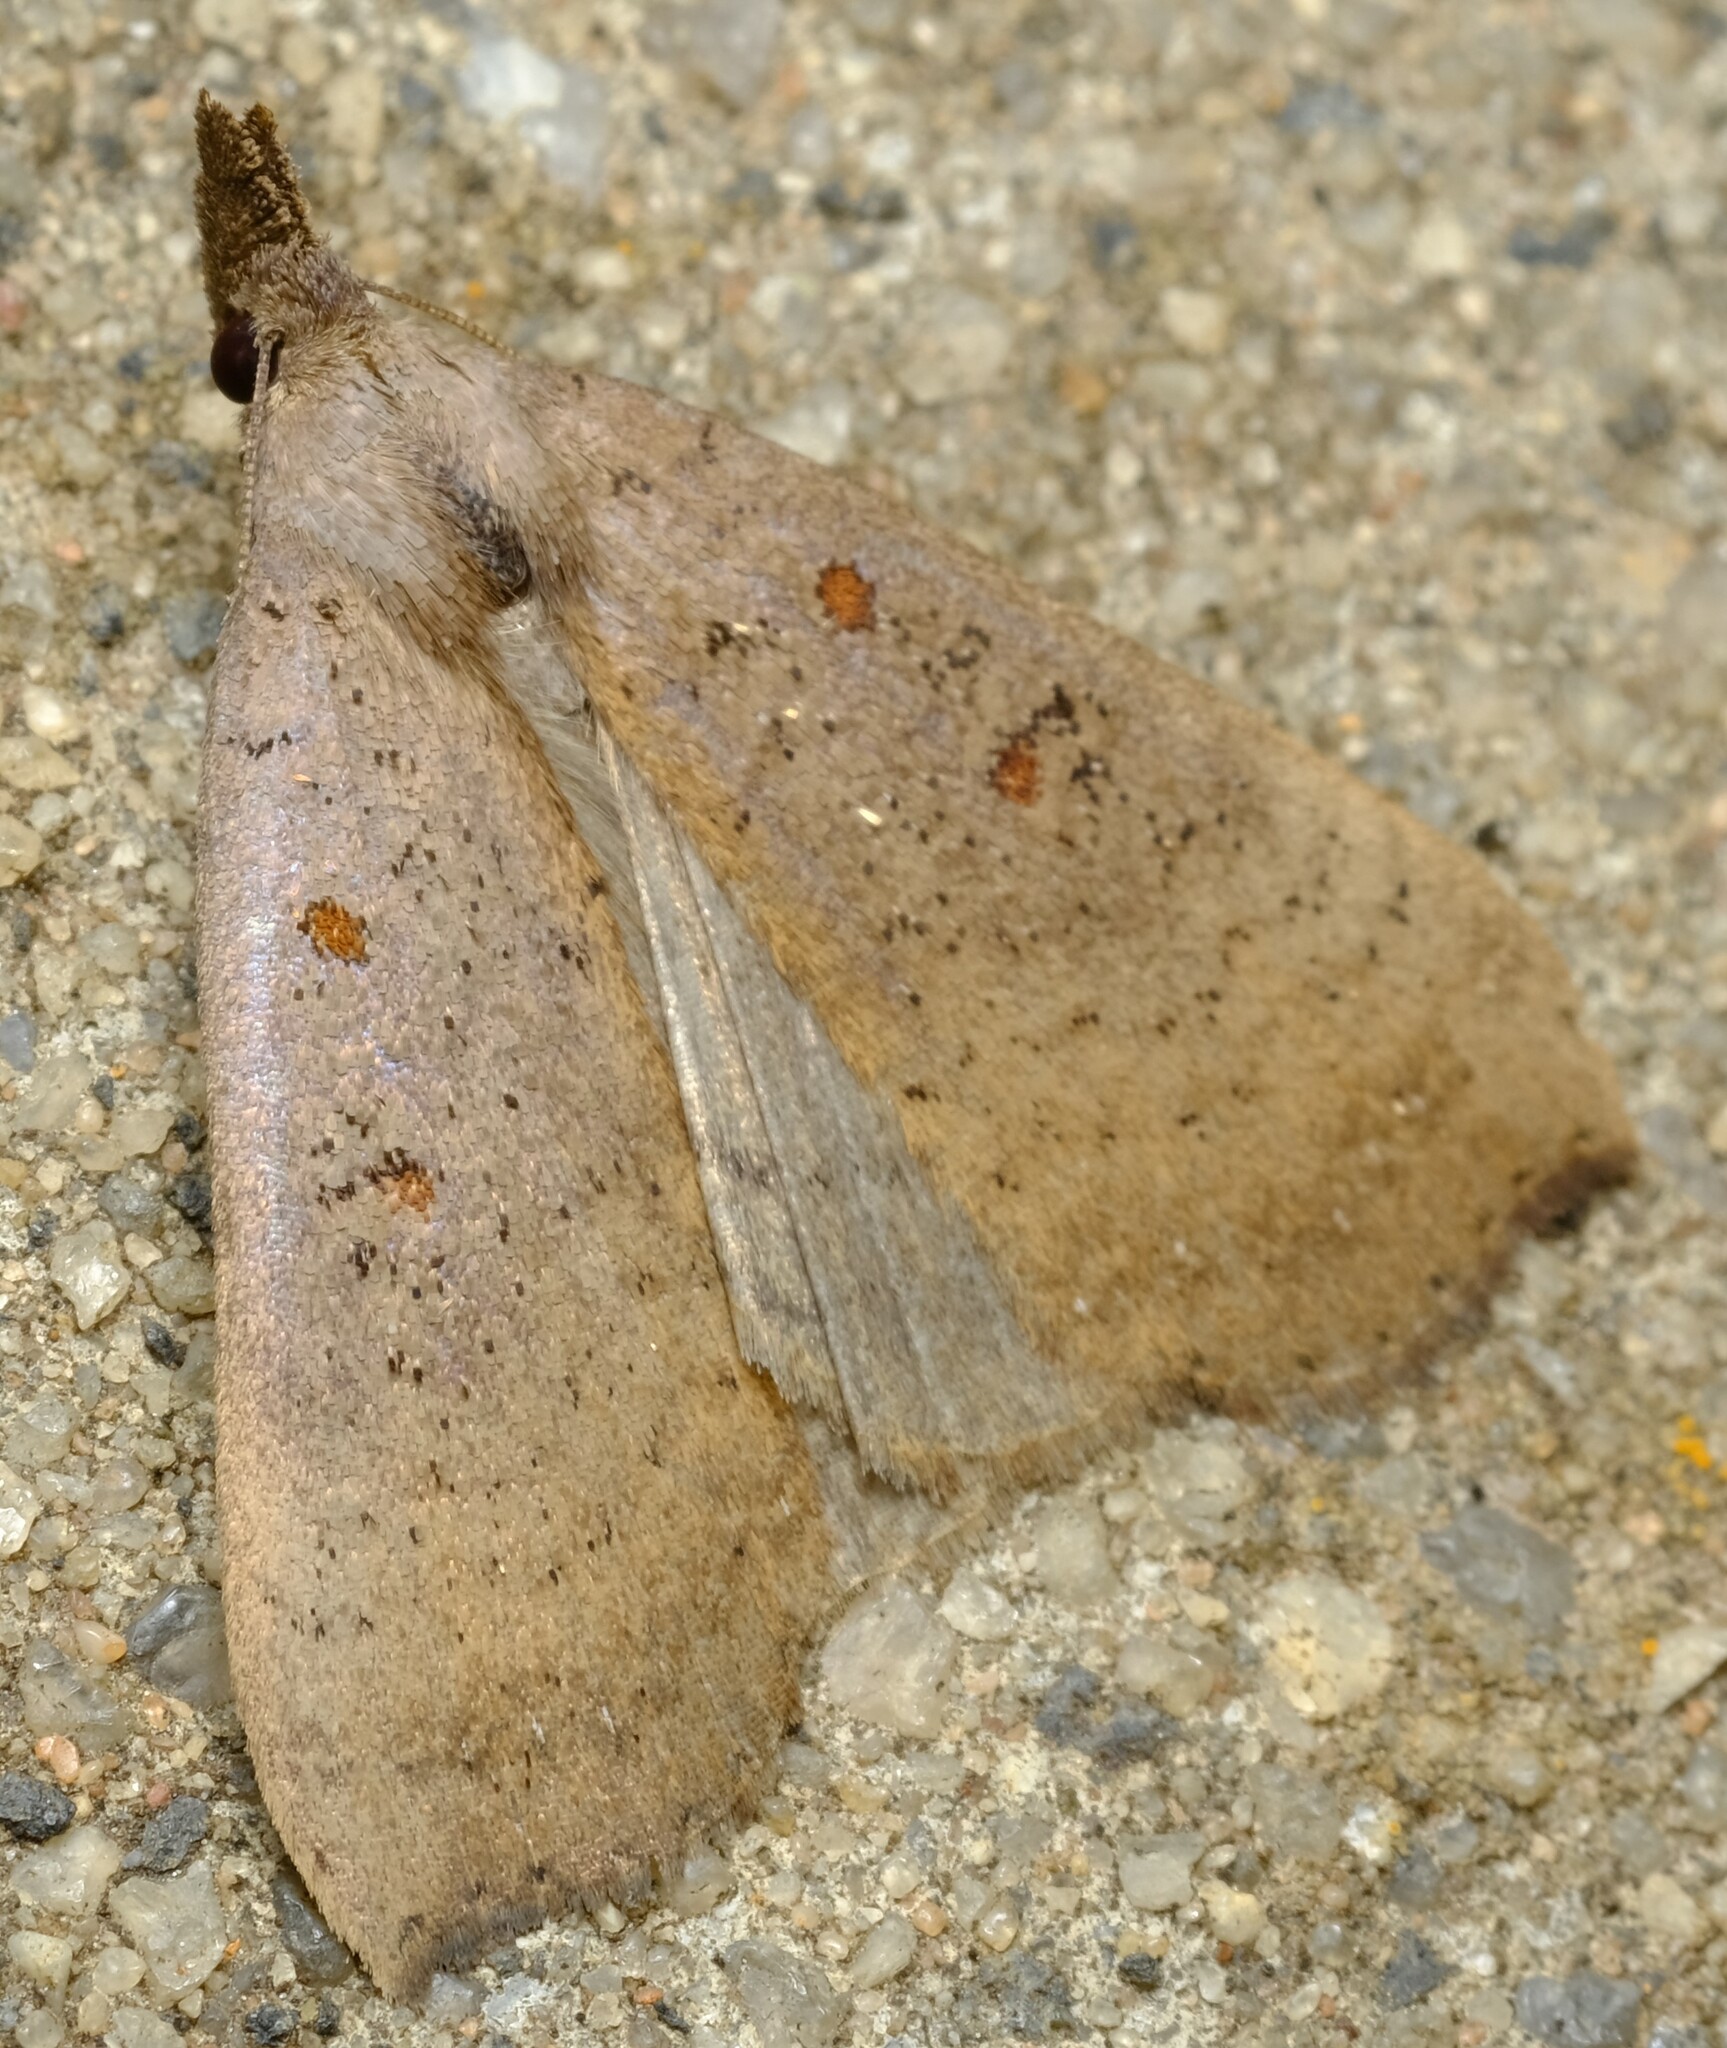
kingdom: Animalia
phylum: Arthropoda
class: Insecta
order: Lepidoptera
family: Erebidae
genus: Rhapsa
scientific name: Rhapsa suscitatalis
